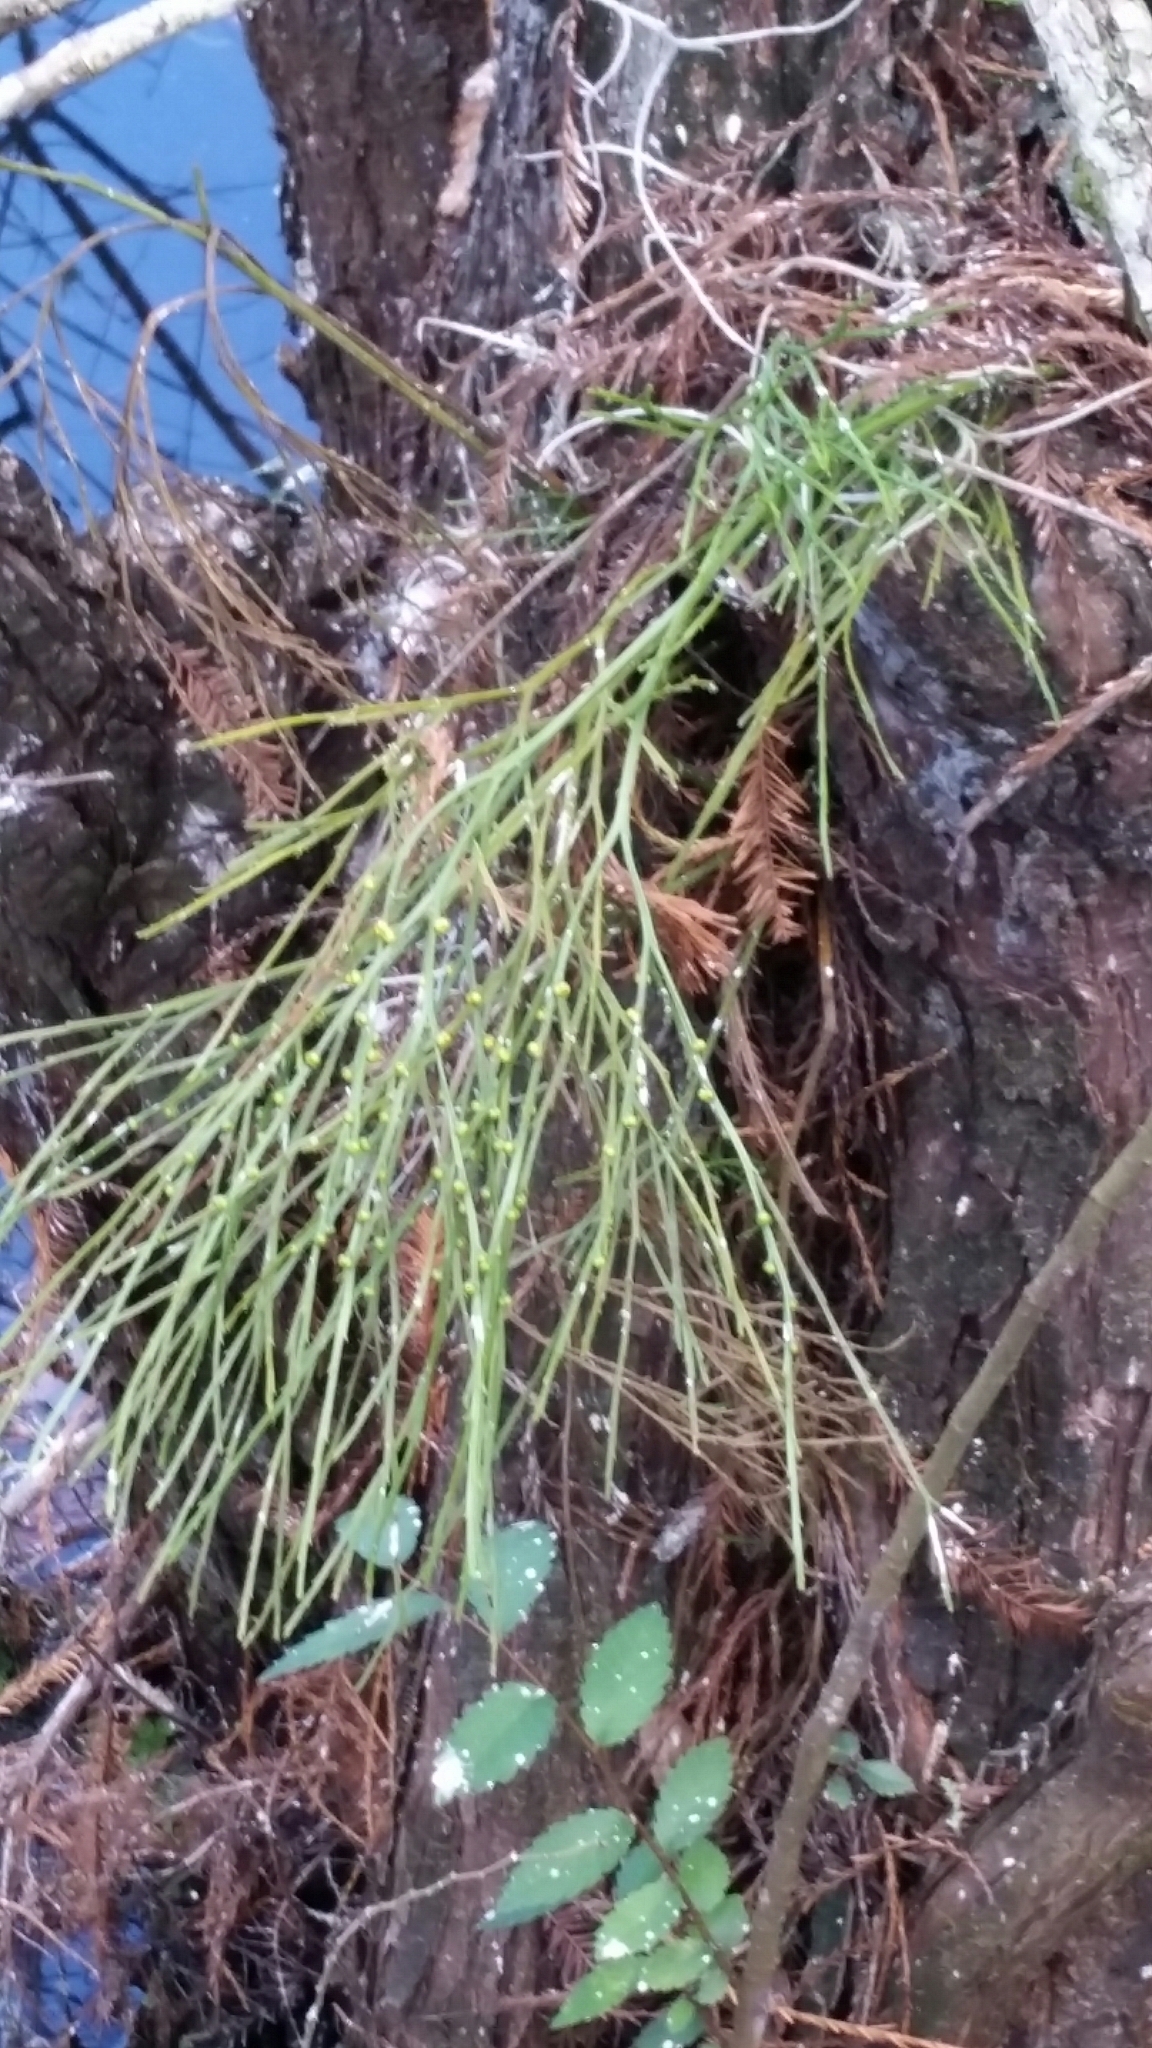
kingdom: Plantae
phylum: Tracheophyta
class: Polypodiopsida
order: Psilotales
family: Psilotaceae
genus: Psilotum
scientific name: Psilotum nudum
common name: Skeleton fork fern
